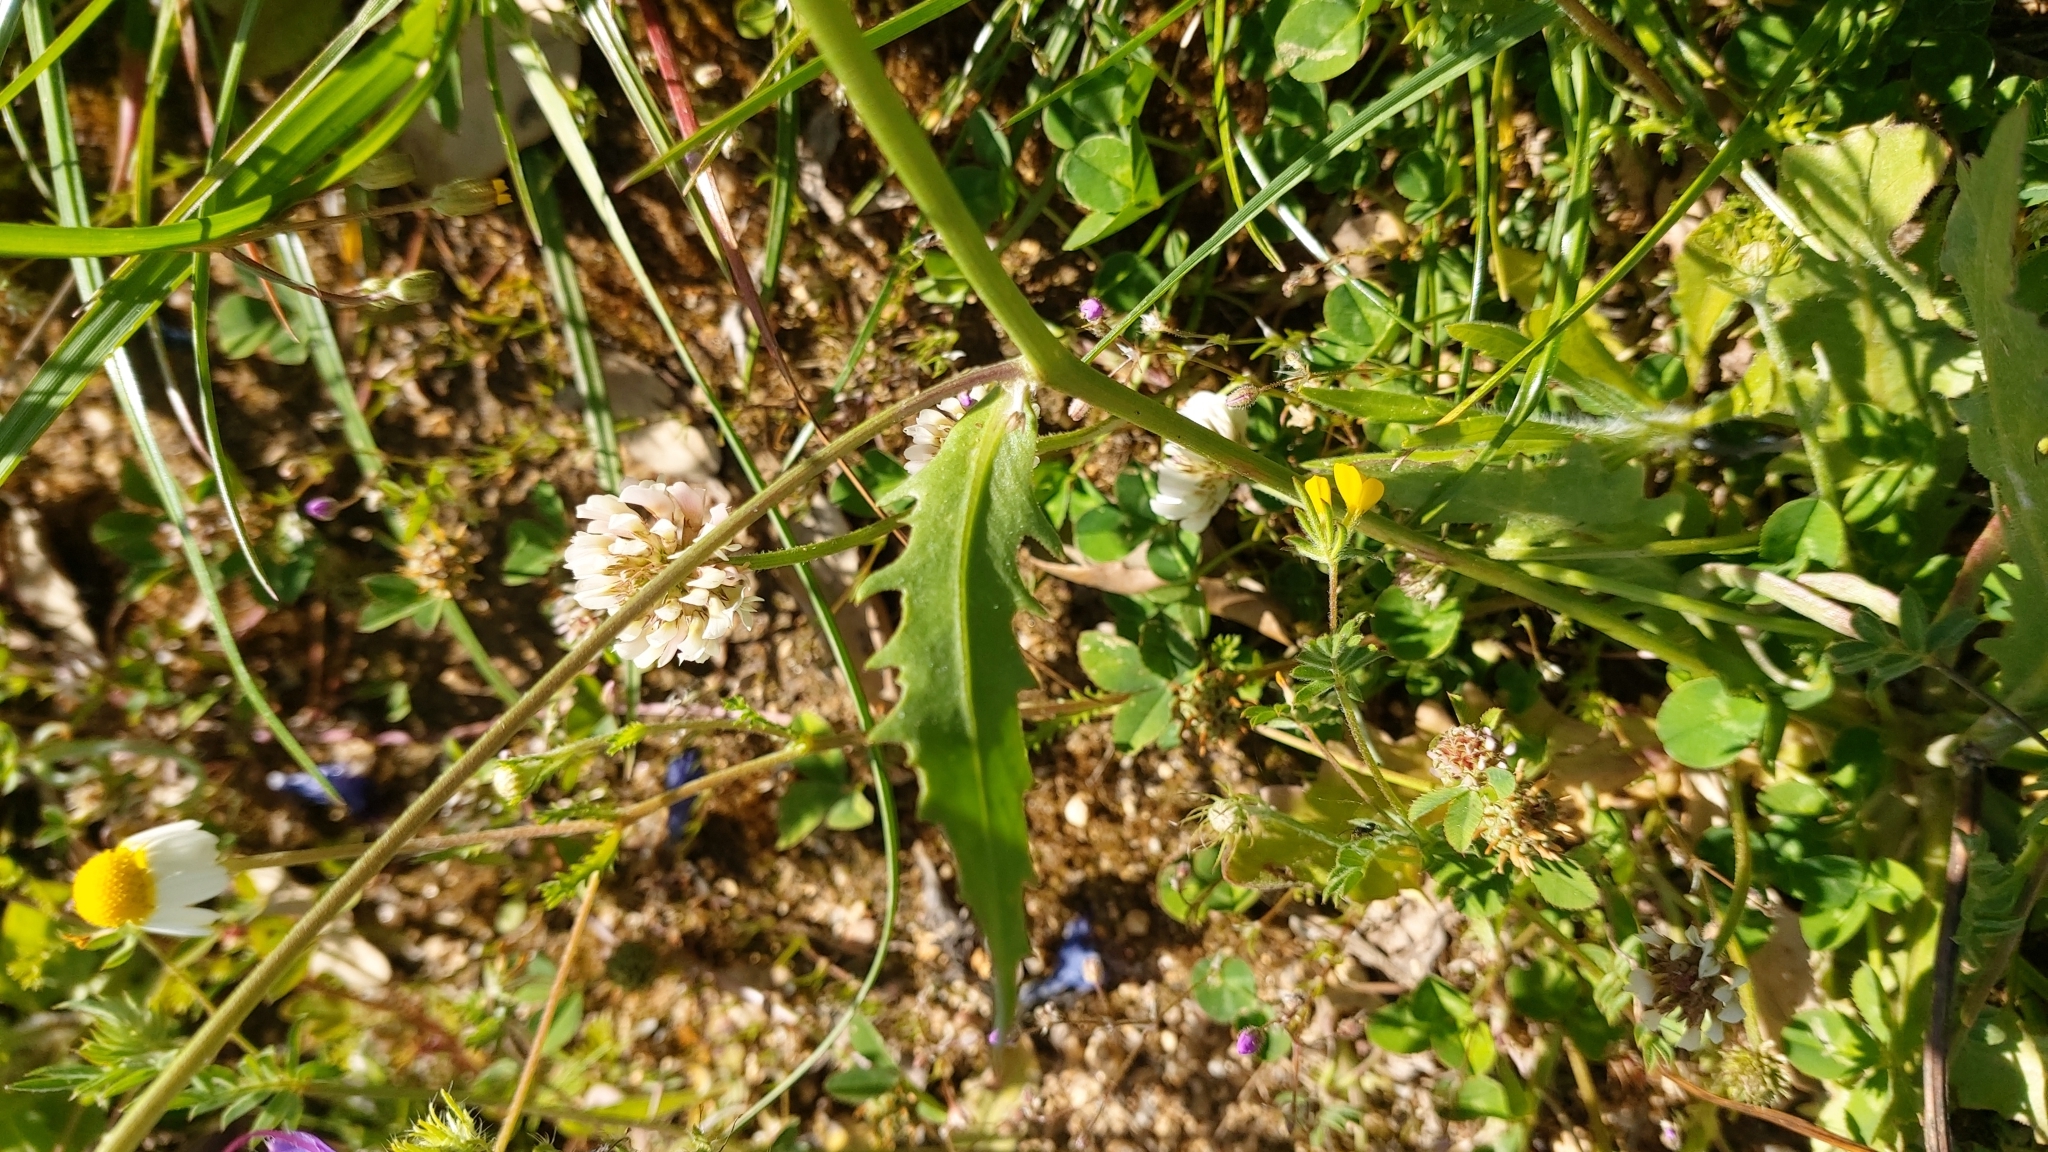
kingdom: Plantae
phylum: Tracheophyta
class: Magnoliopsida
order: Asterales
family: Asteraceae
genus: Tolpis
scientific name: Tolpis barbata
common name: Yellow hawkweed
